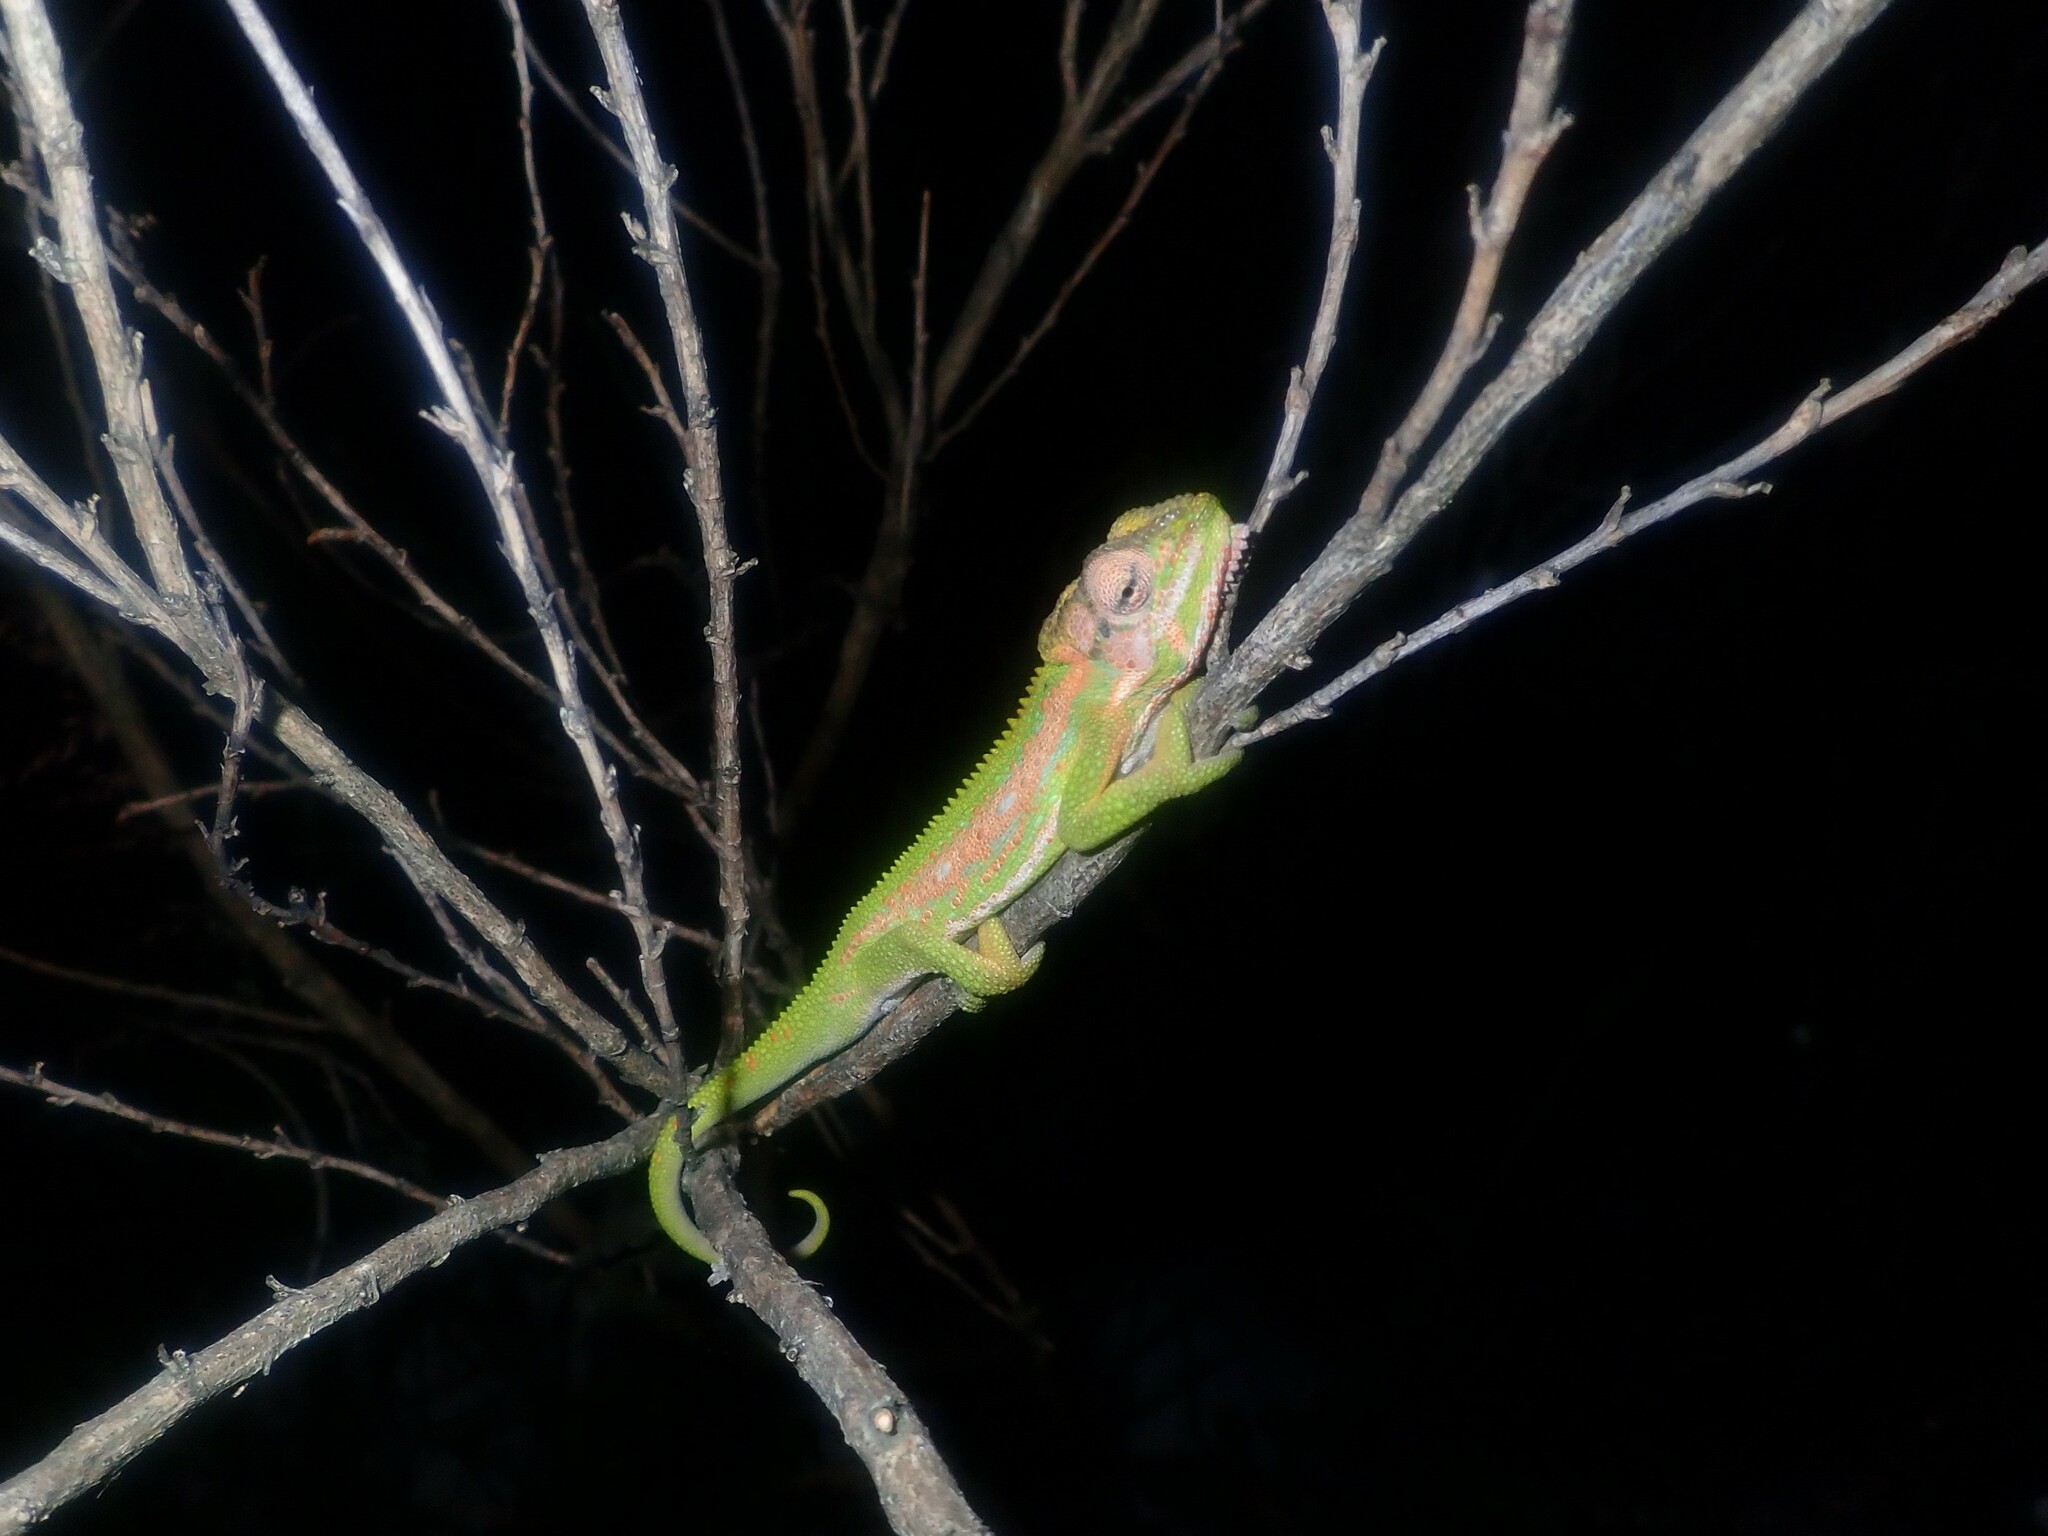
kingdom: Animalia
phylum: Chordata
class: Squamata
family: Chamaeleonidae
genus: Bradypodion
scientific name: Bradypodion pumilum
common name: Cape dwarf chameleon
